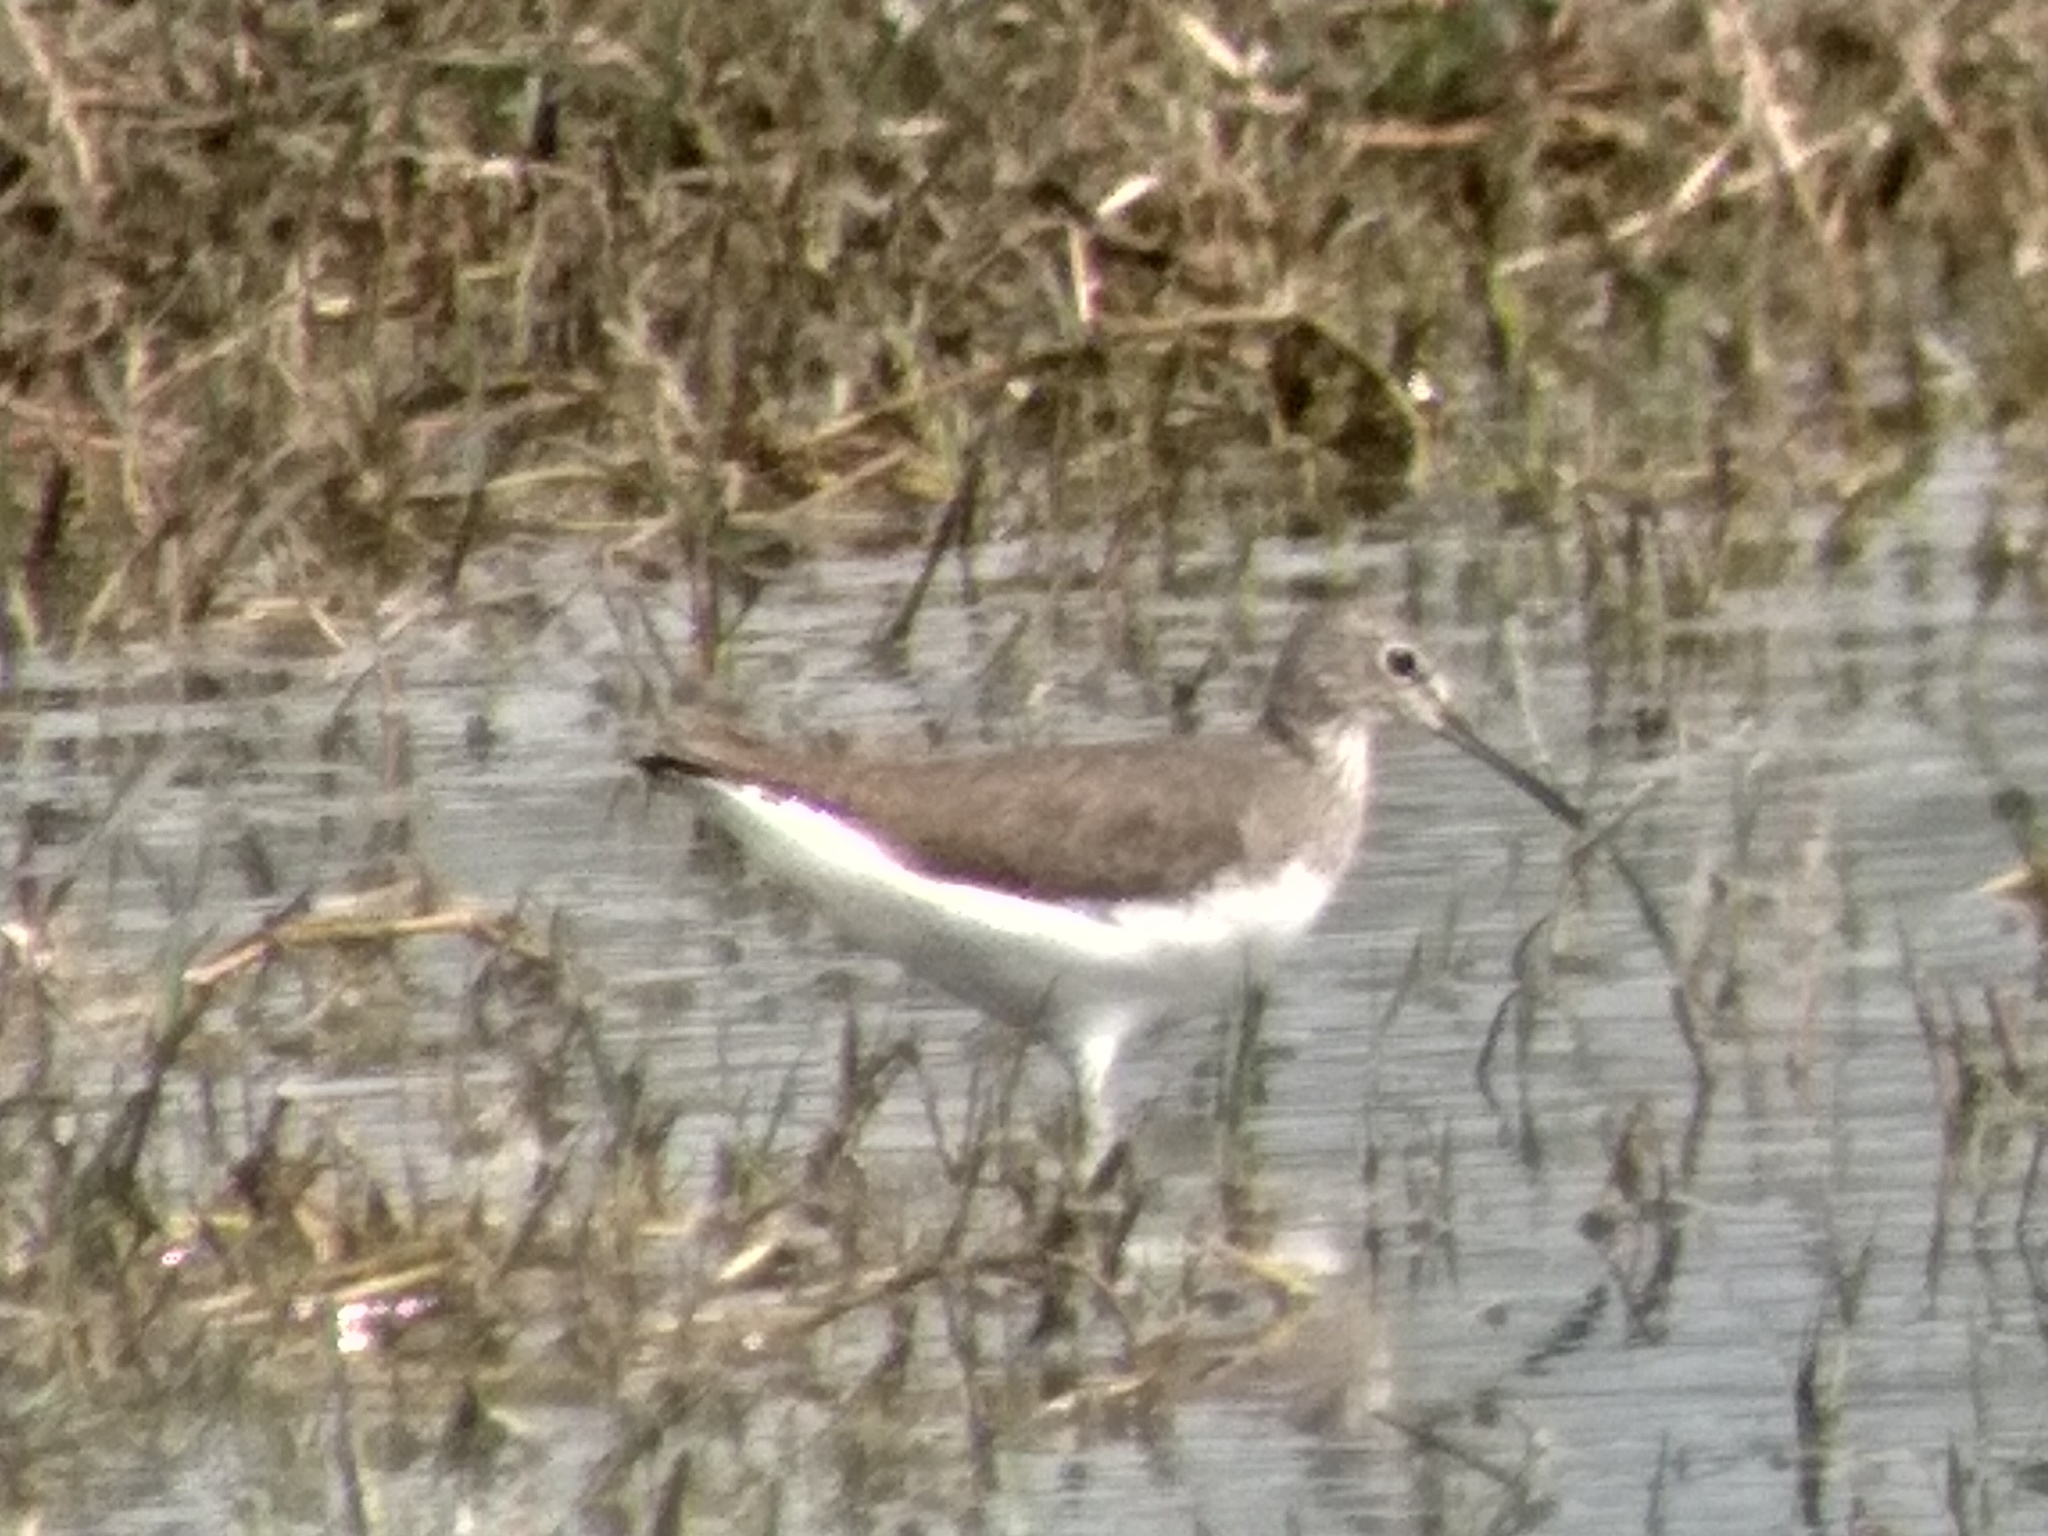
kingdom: Animalia
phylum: Chordata
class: Aves
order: Charadriiformes
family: Scolopacidae
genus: Tringa
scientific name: Tringa ochropus
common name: Green sandpiper
